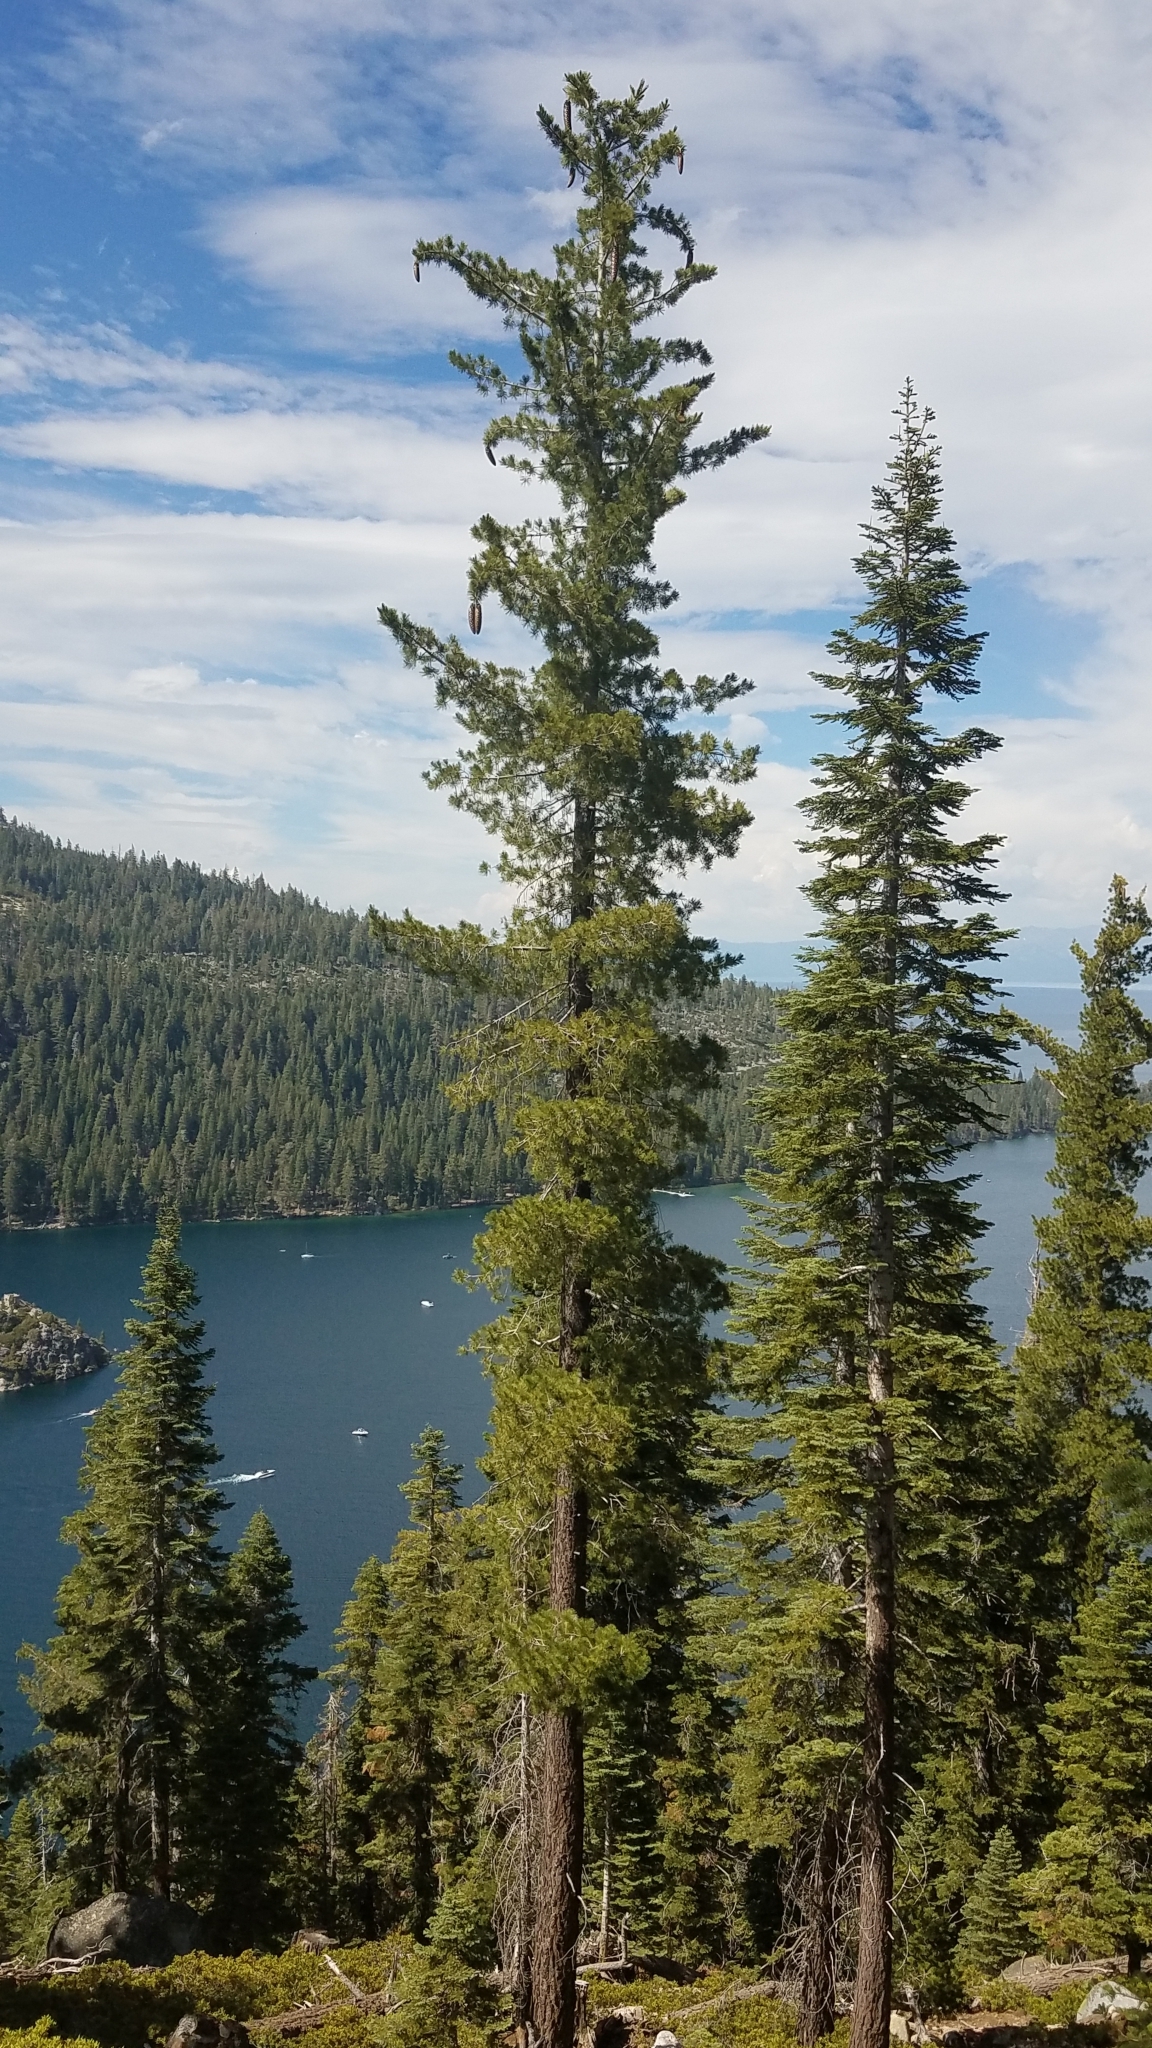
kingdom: Plantae
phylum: Tracheophyta
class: Pinopsida
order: Pinales
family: Pinaceae
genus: Pinus
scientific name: Pinus lambertiana
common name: Sugar pine
